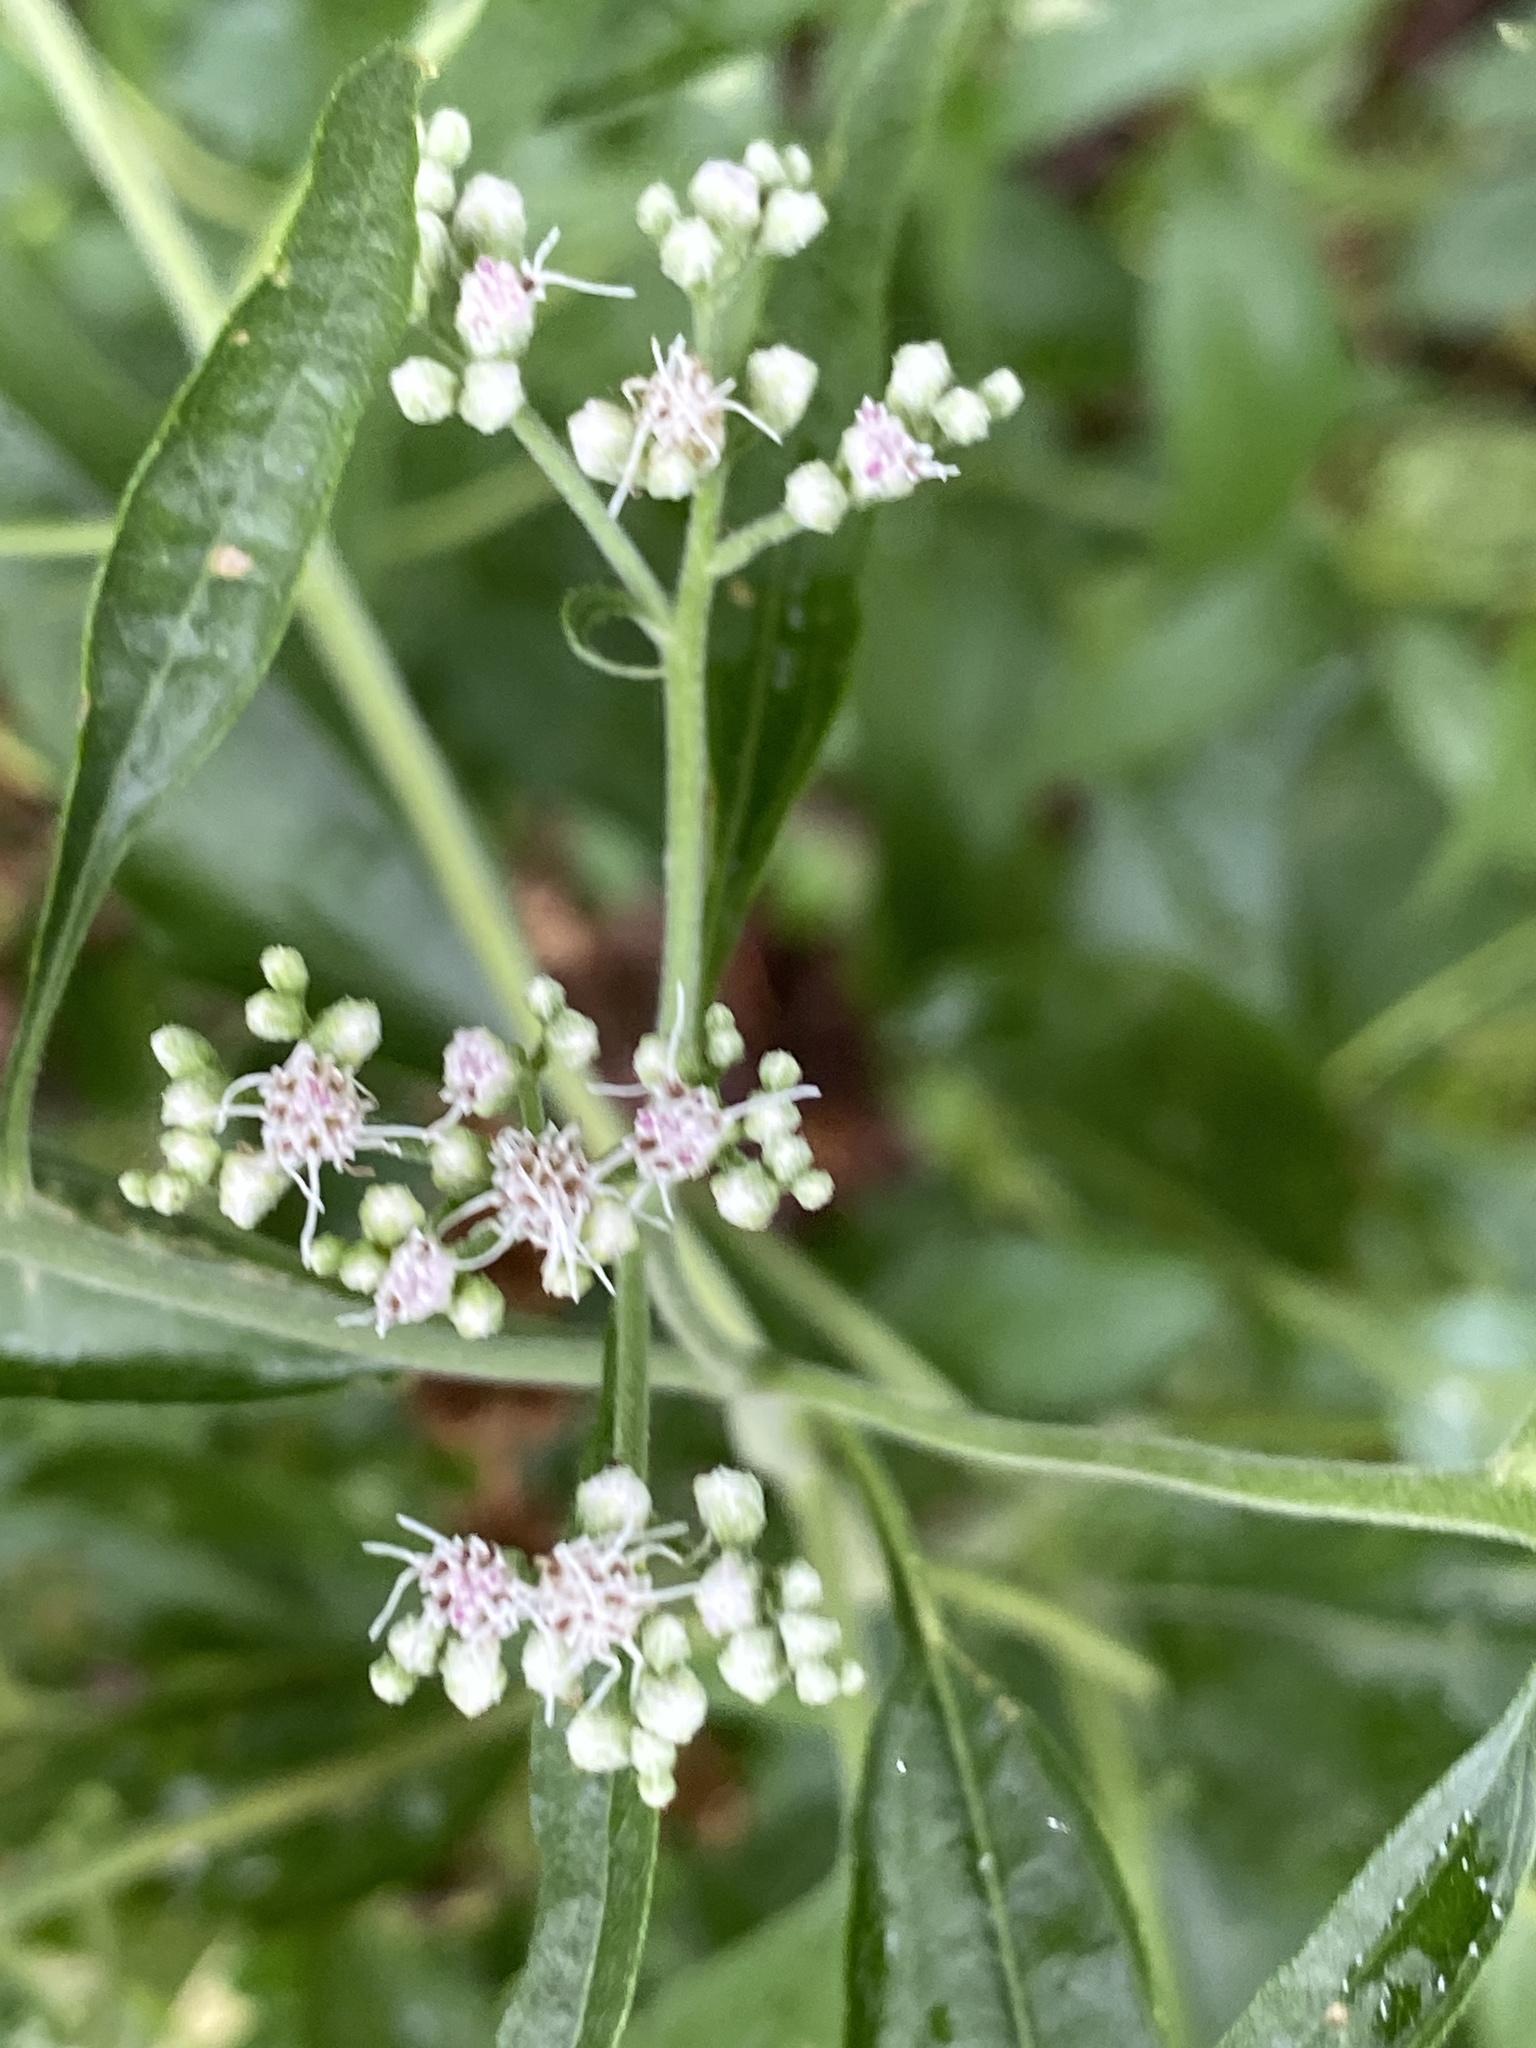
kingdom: Plantae
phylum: Tracheophyta
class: Magnoliopsida
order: Asterales
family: Asteraceae
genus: Eupatorium
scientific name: Eupatorium serotinum
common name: Late boneset
